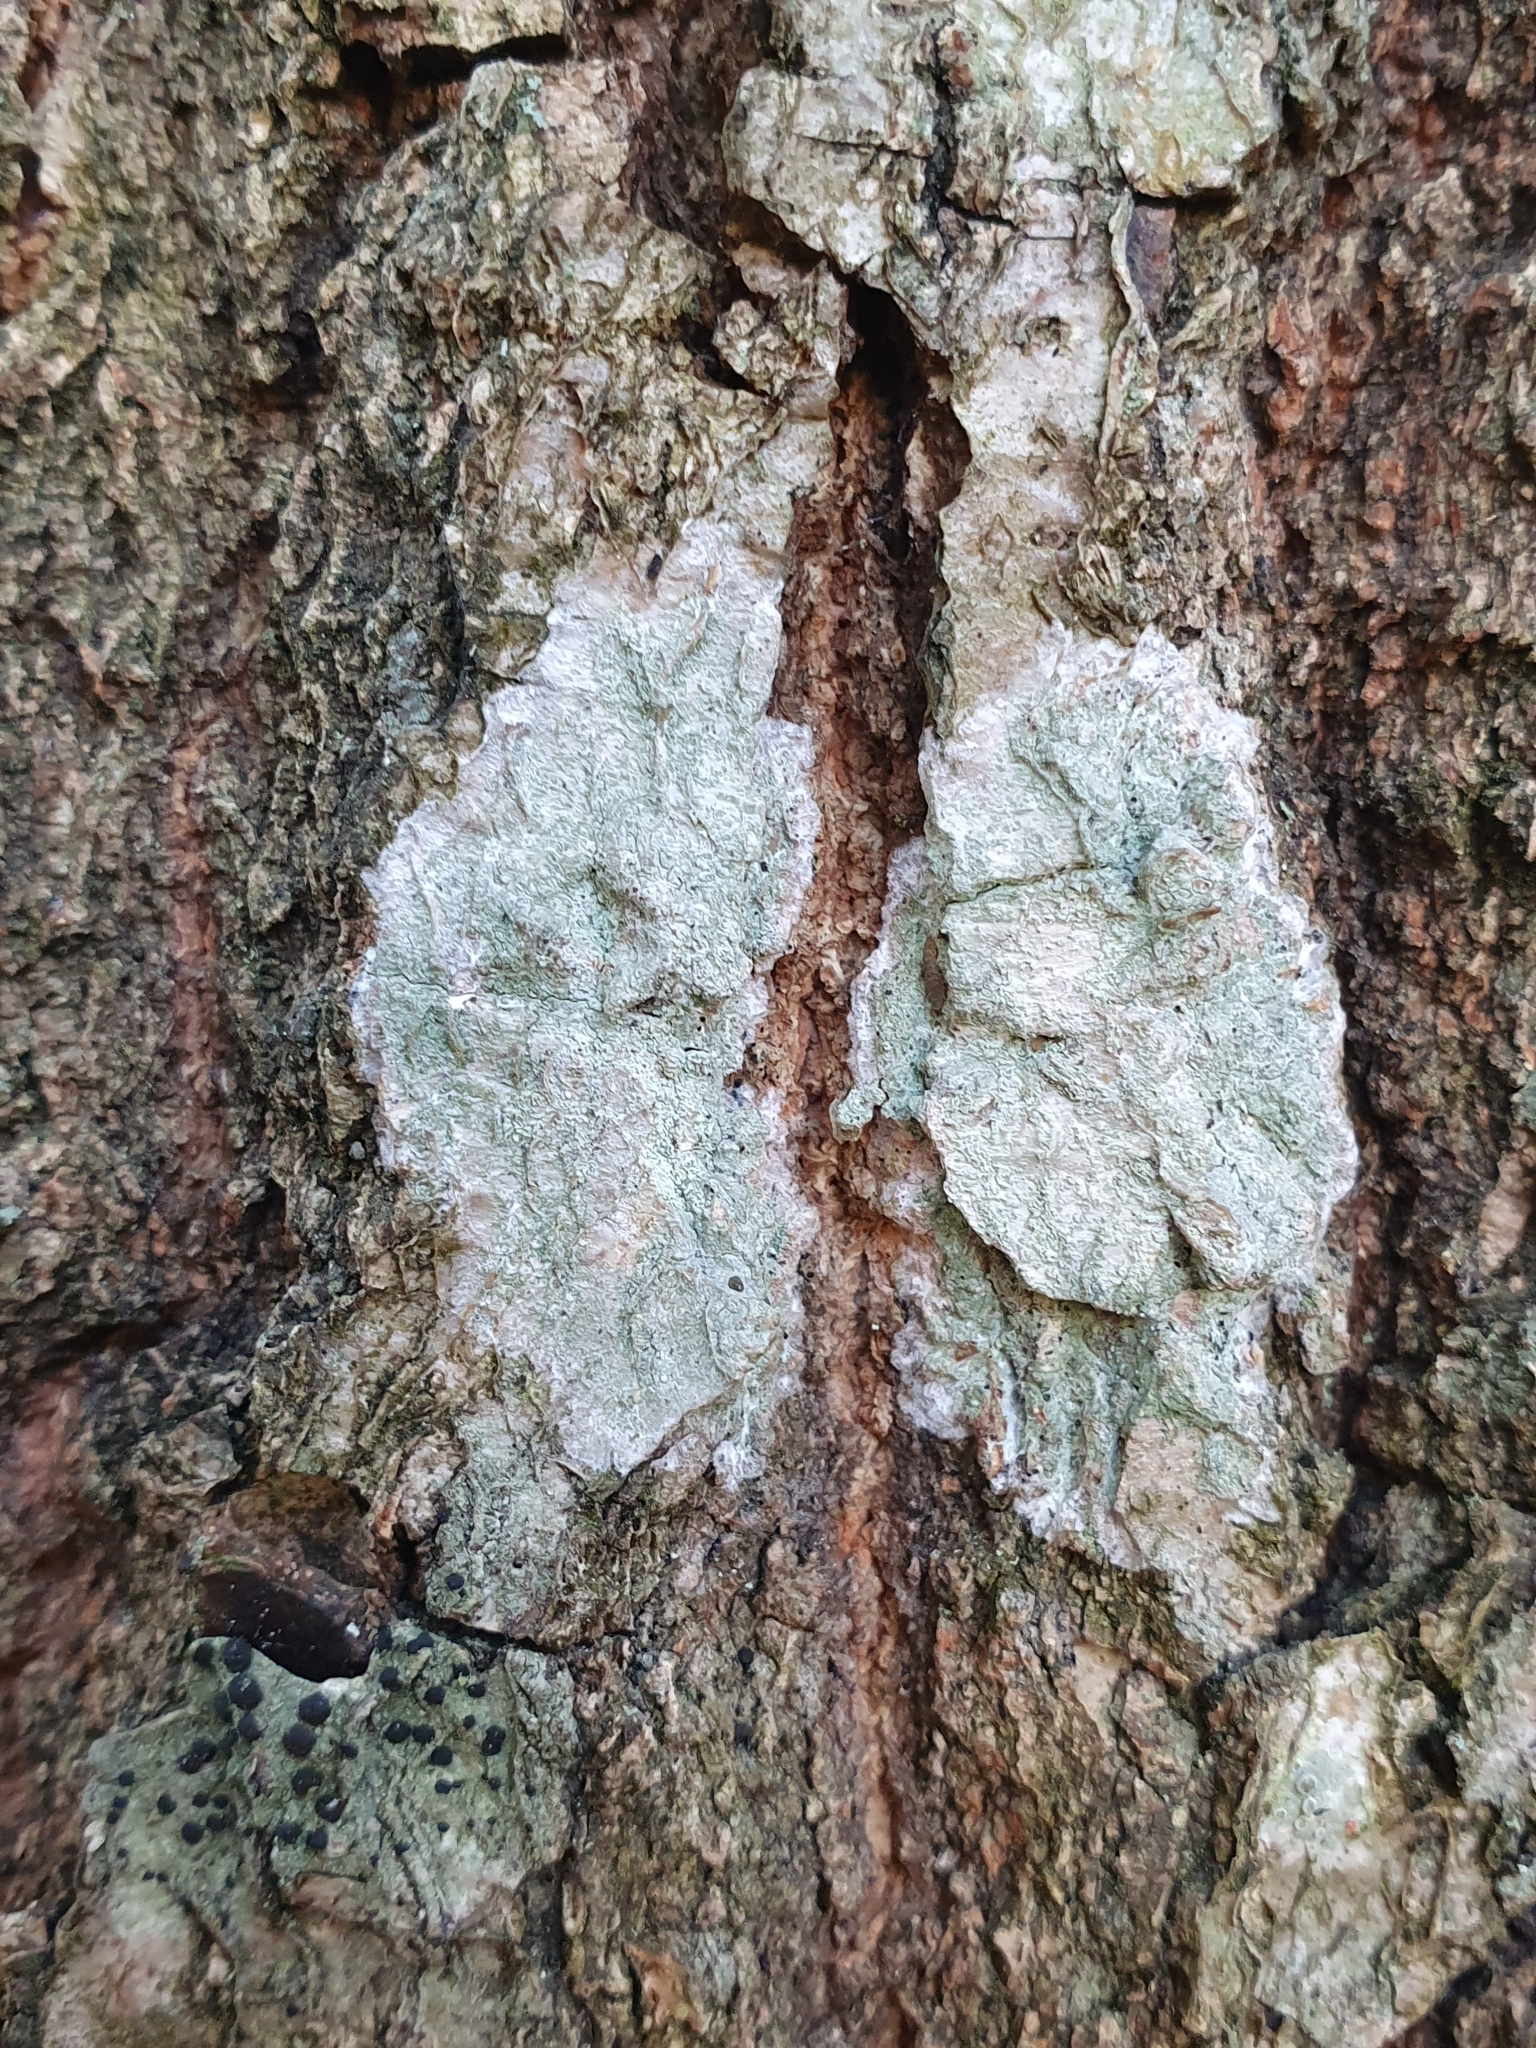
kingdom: Fungi
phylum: Ascomycota
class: Lecanoromycetes
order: Ostropales
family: Phlyctidaceae
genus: Phlyctis
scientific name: Phlyctis argena
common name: Whitewash lichen
